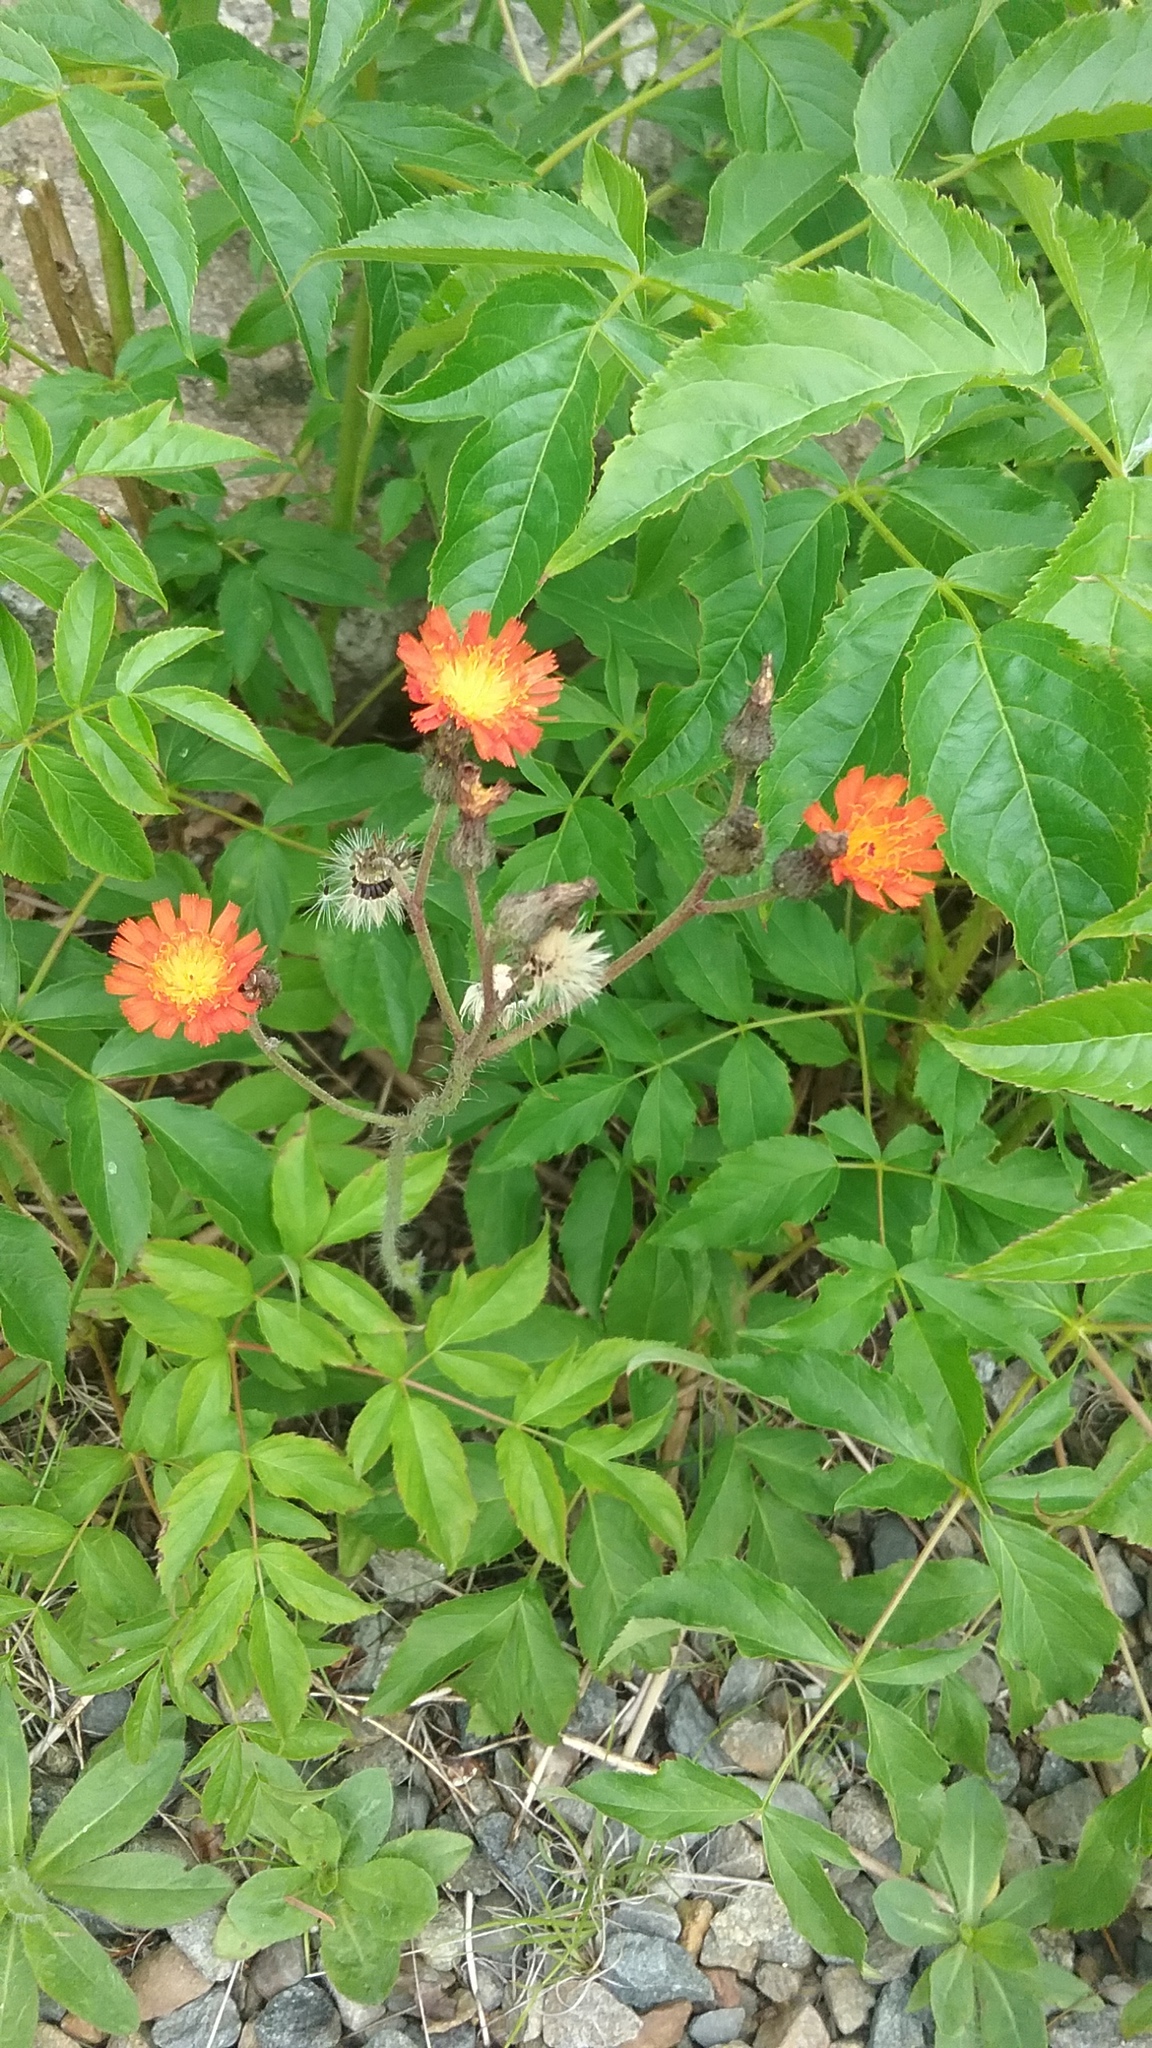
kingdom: Plantae
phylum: Tracheophyta
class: Magnoliopsida
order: Asterales
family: Asteraceae
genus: Pilosella
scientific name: Pilosella aurantiaca
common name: Fox-and-cubs
